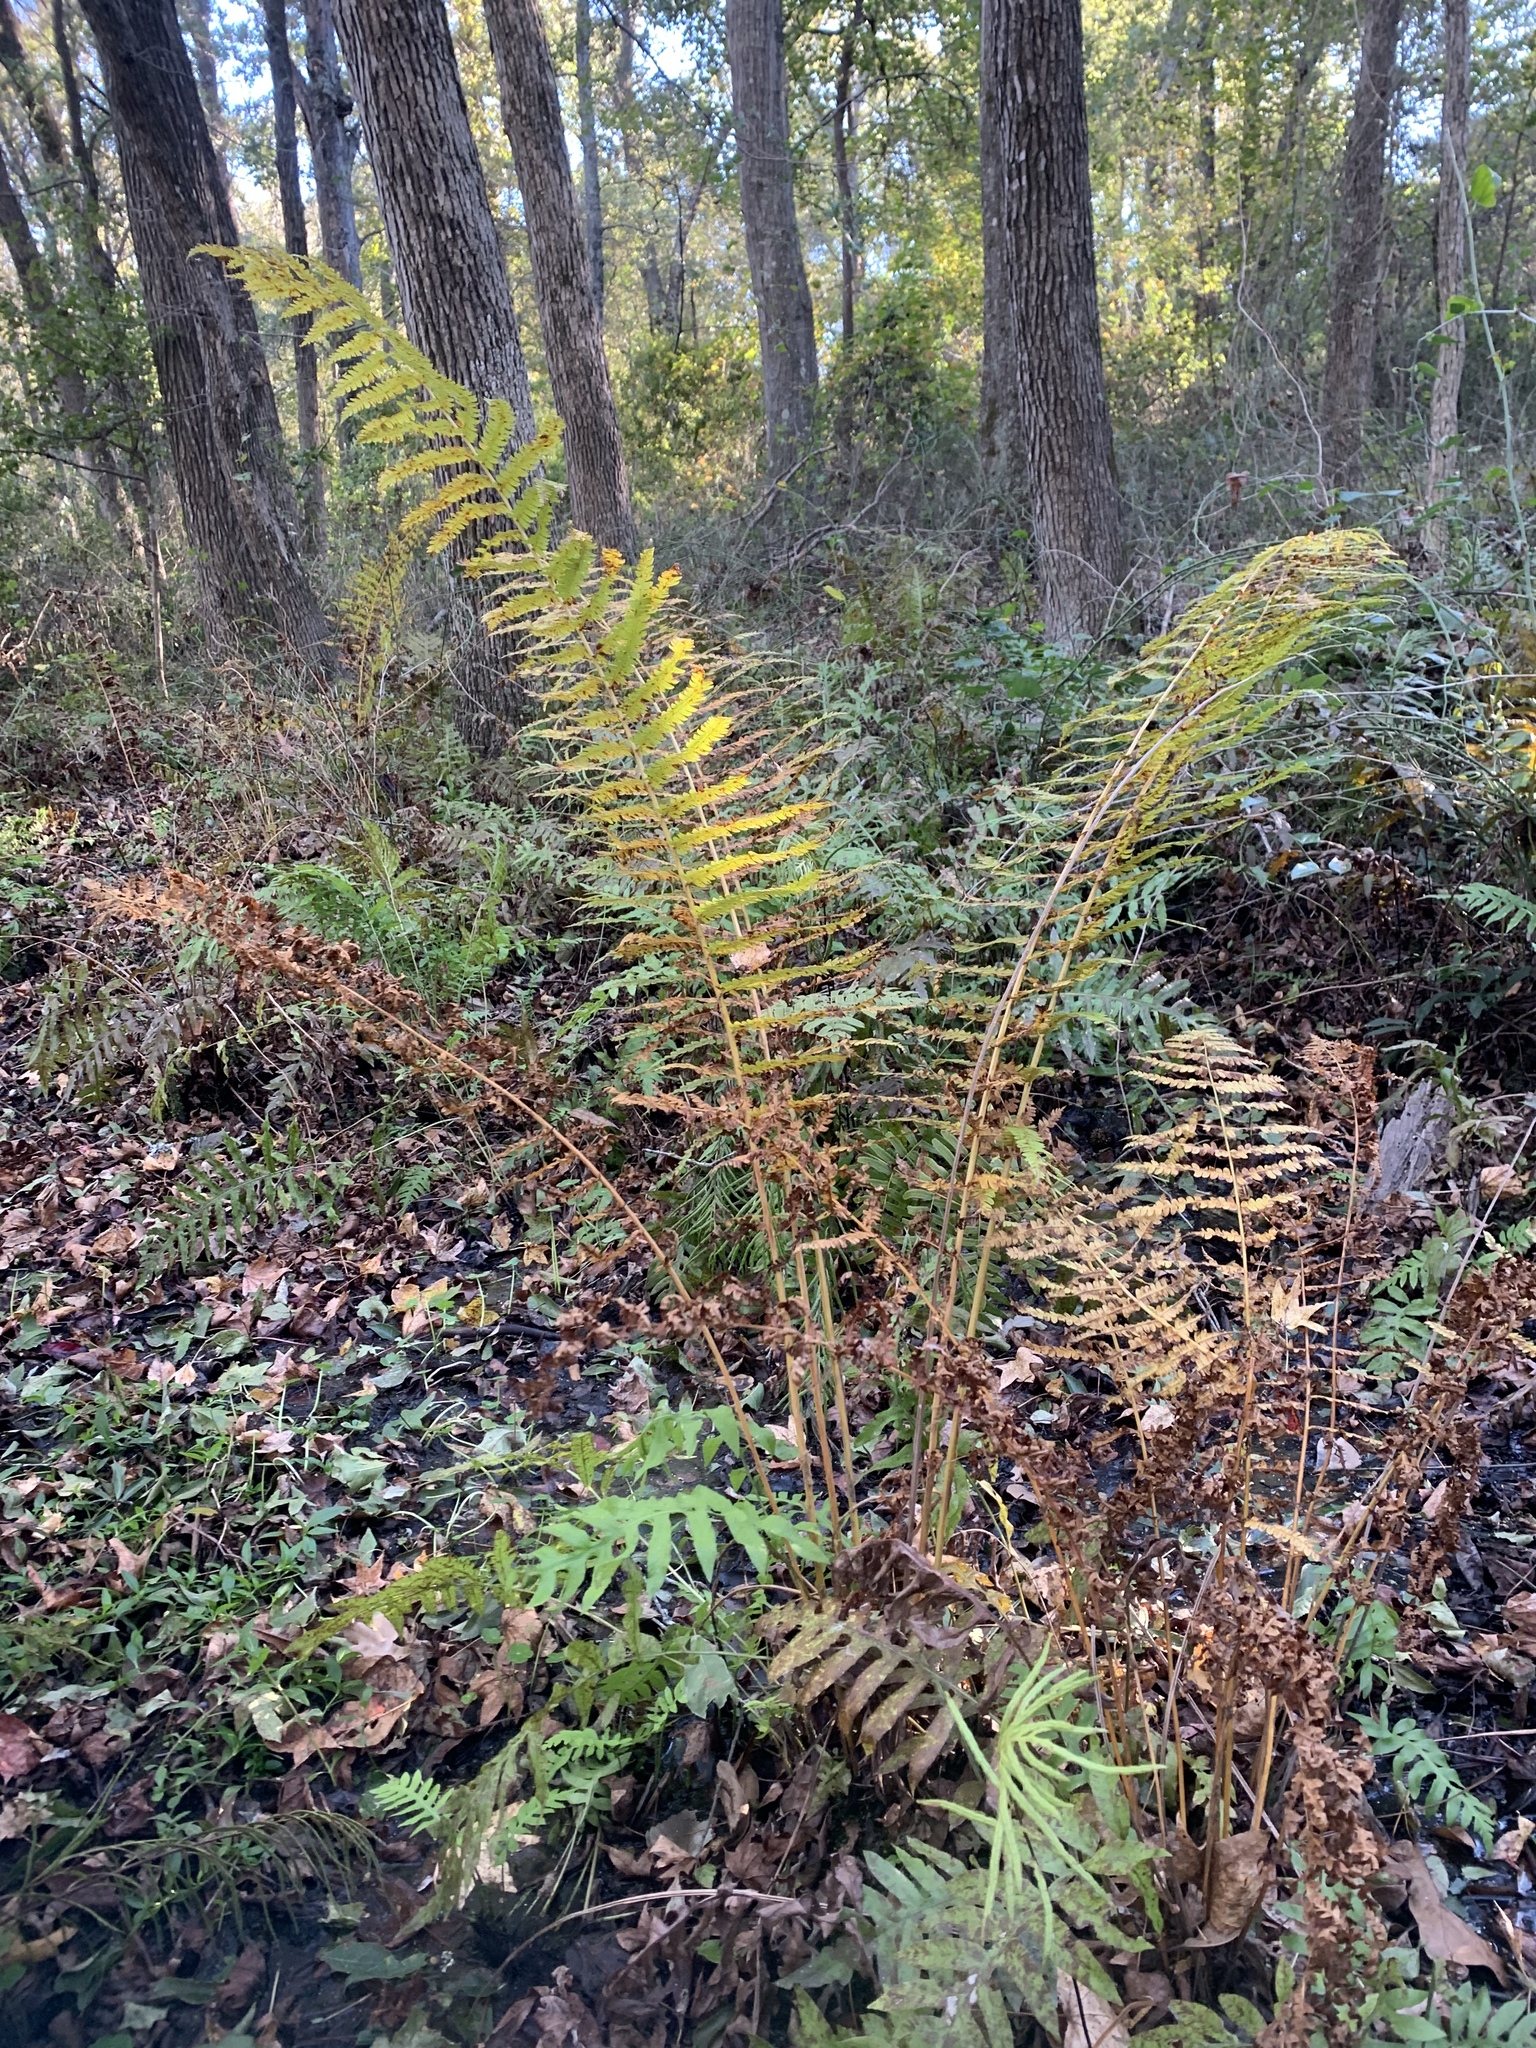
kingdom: Plantae
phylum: Tracheophyta
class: Polypodiopsida
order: Osmundales
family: Osmundaceae
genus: Osmundastrum
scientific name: Osmundastrum cinnamomeum
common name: Cinnamon fern
